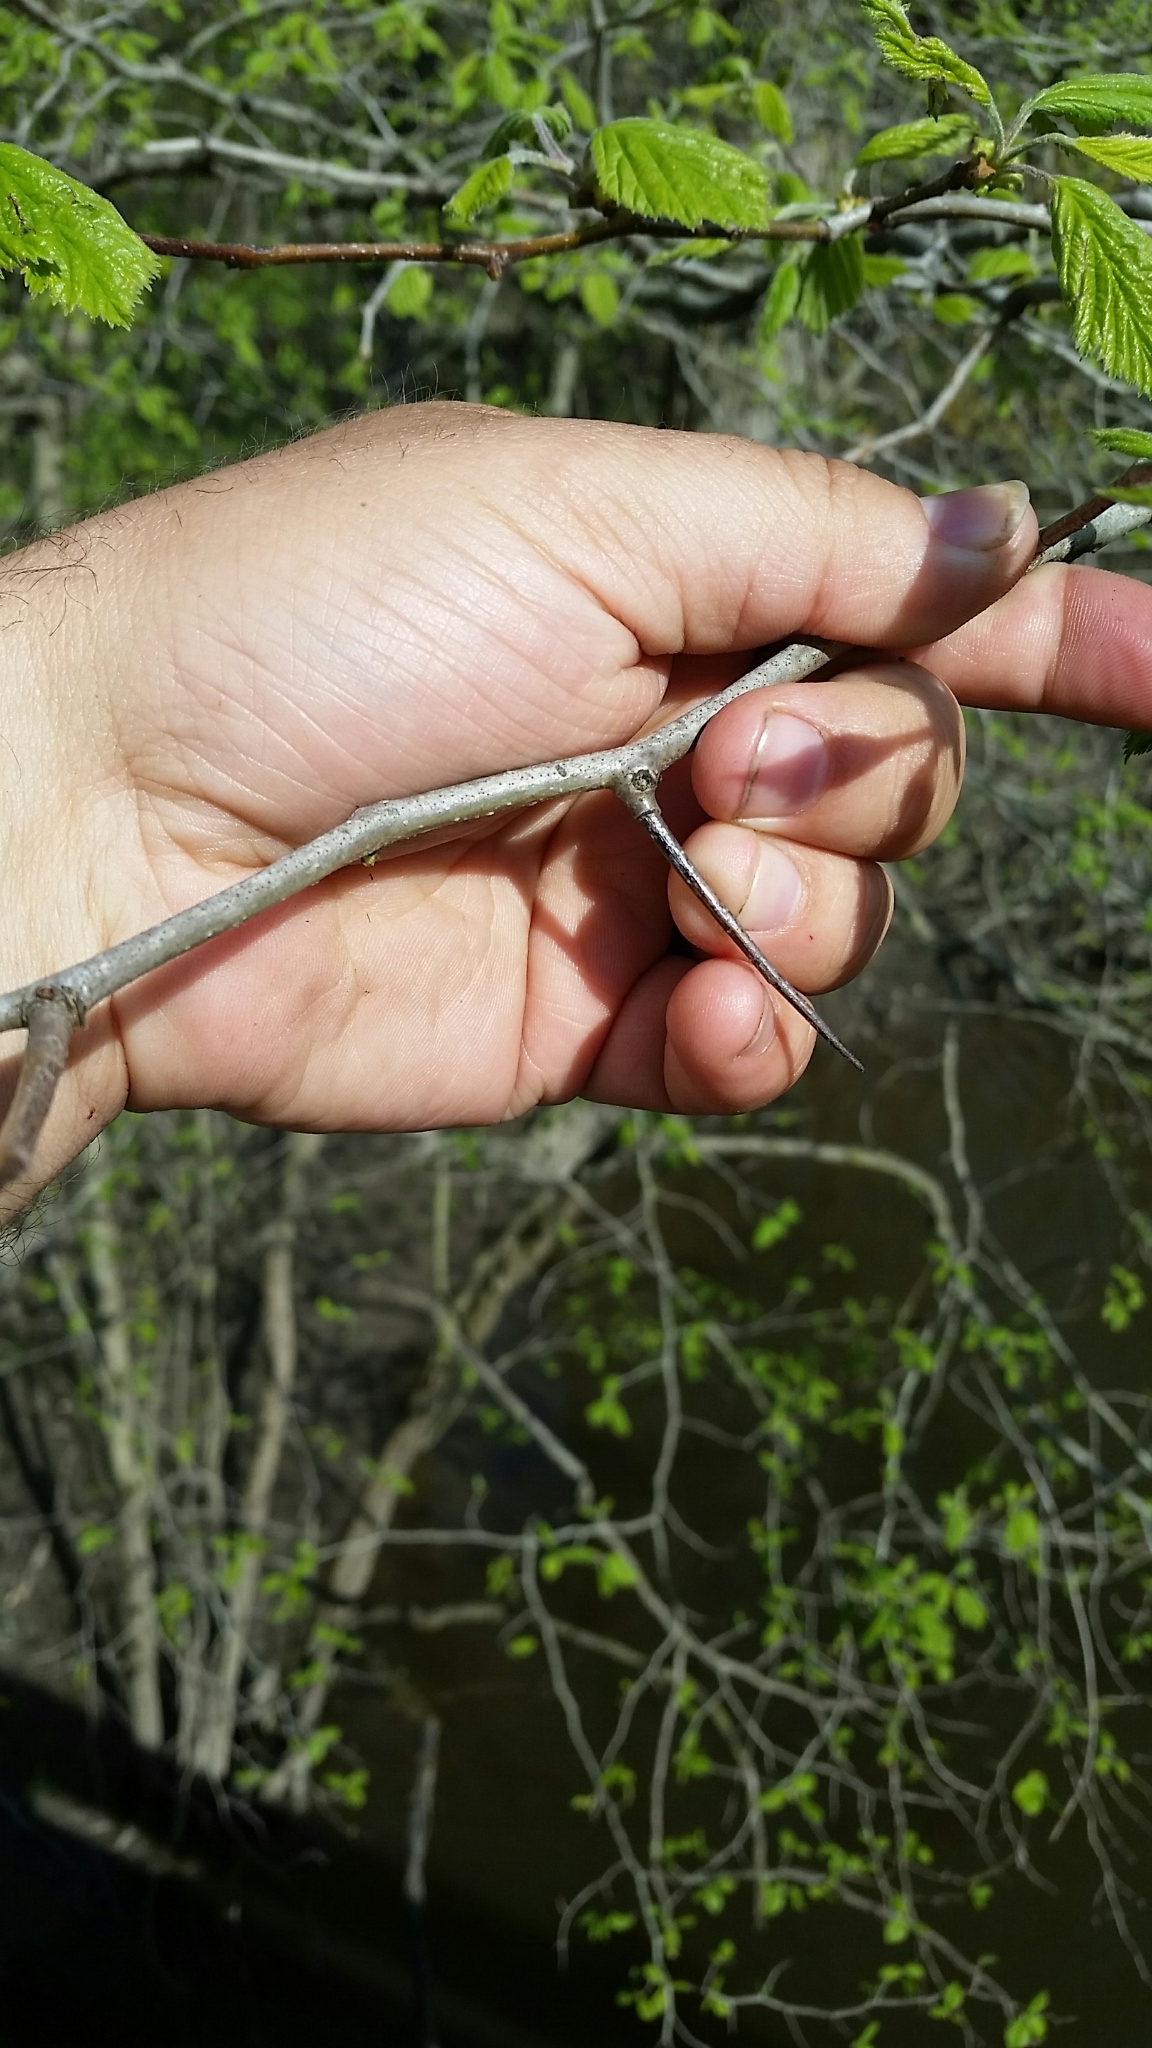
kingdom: Plantae
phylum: Tracheophyta
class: Magnoliopsida
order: Rosales
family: Rosaceae
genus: Crataegus
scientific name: Crataegus mollis
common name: Downy hawthorn
